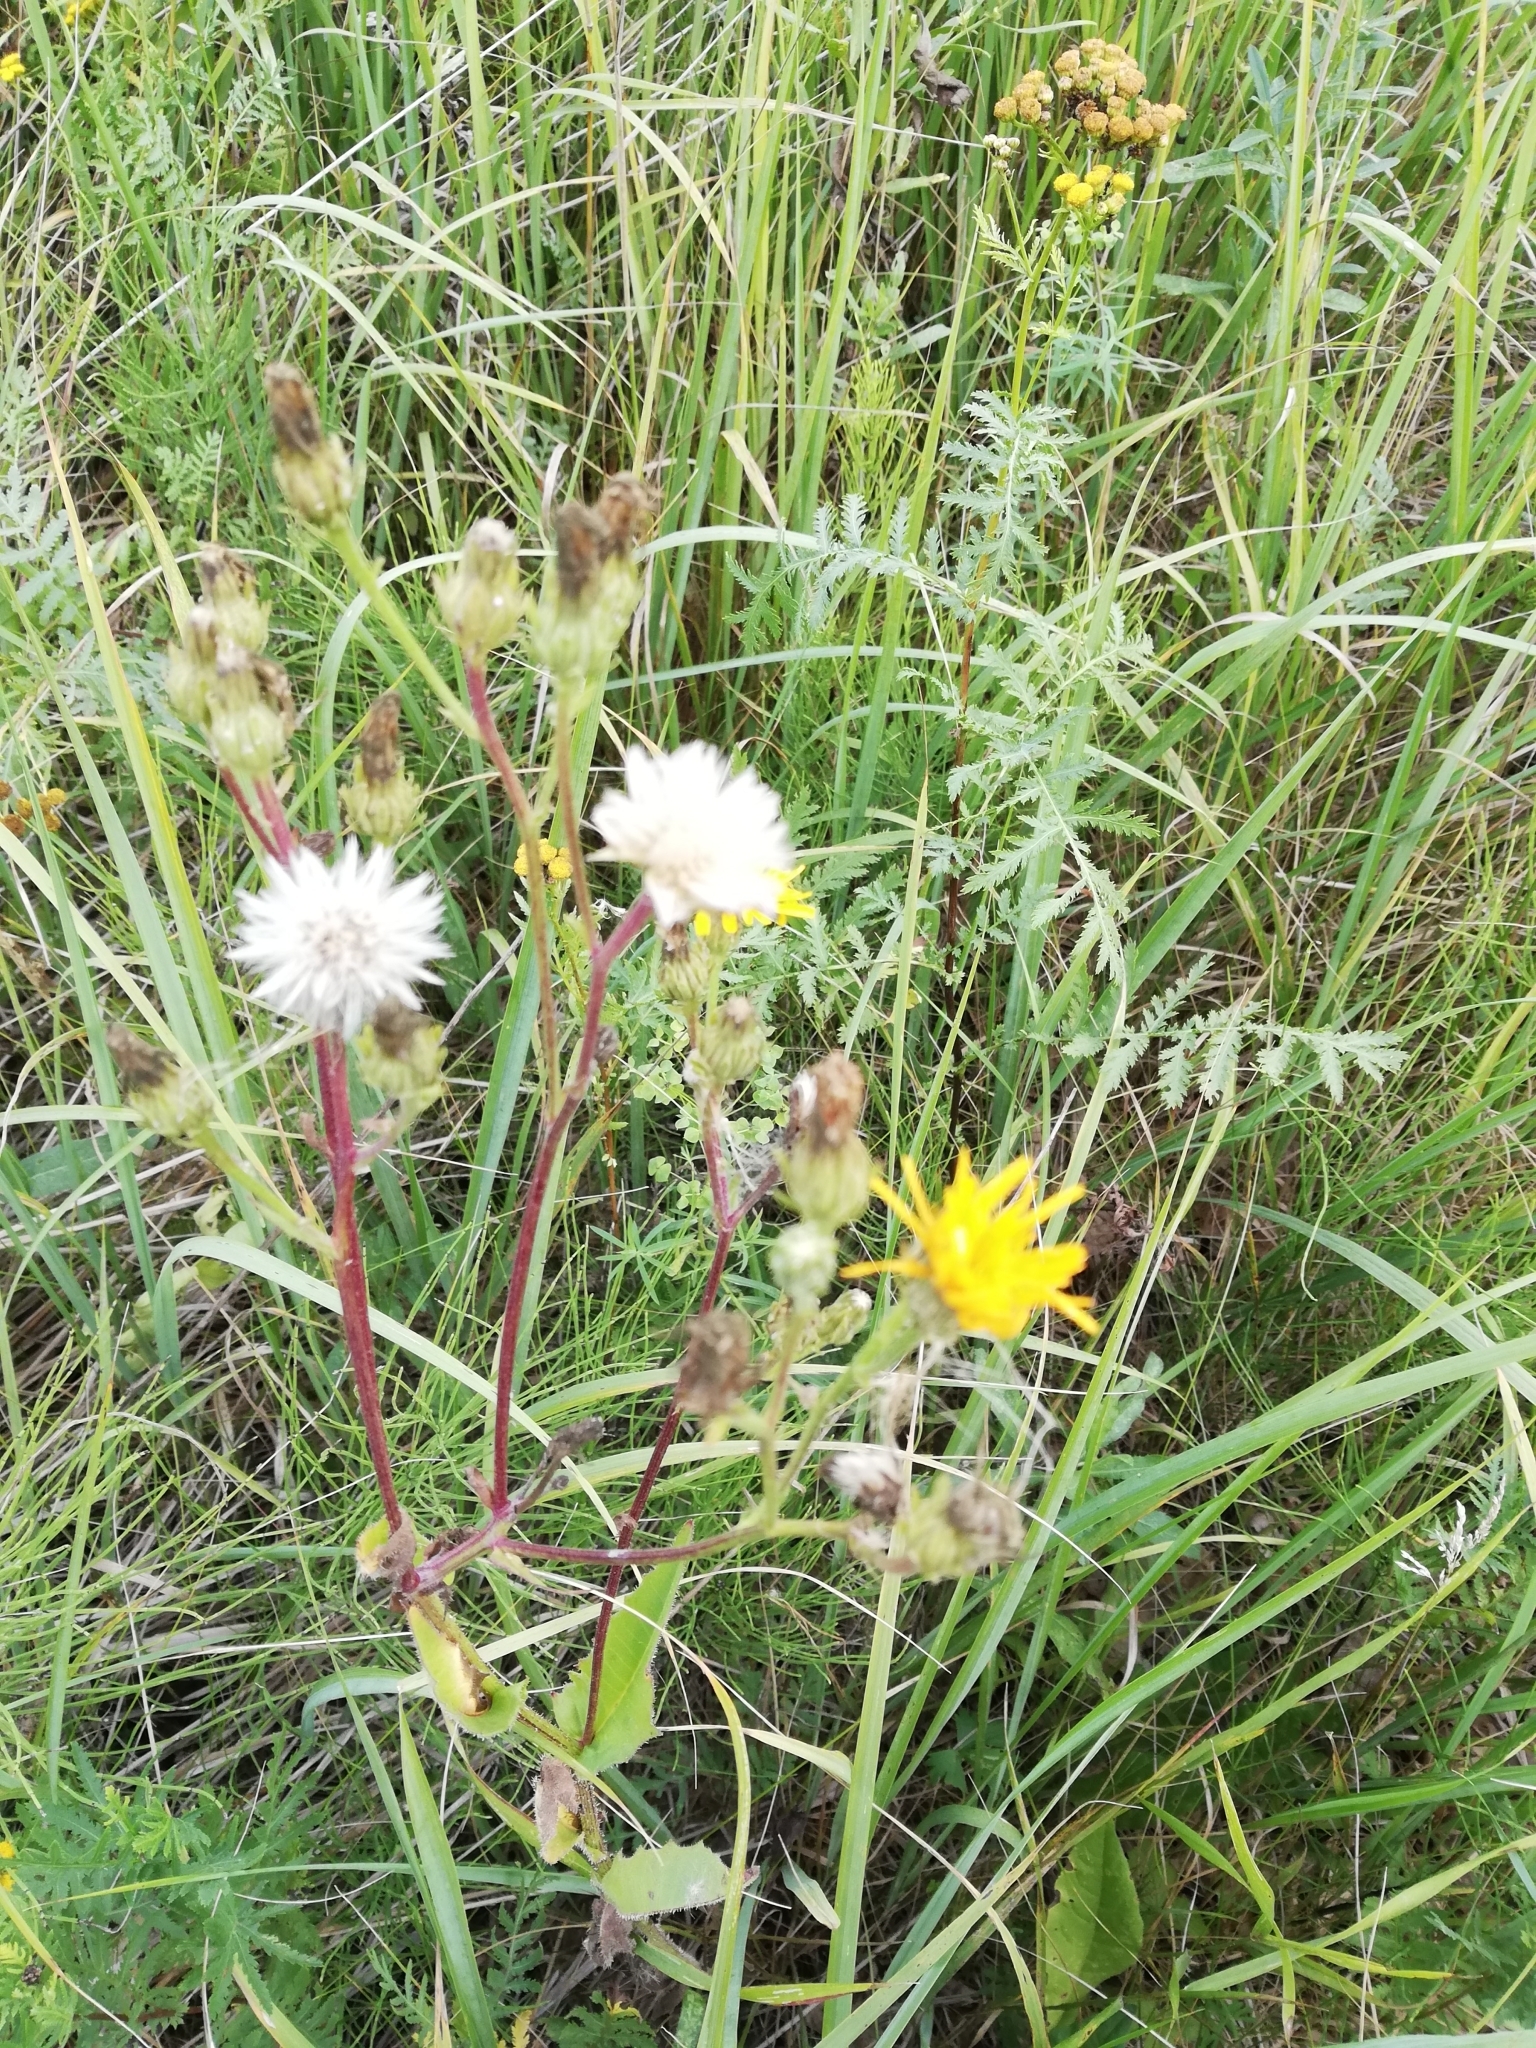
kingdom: Plantae
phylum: Tracheophyta
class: Magnoliopsida
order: Asterales
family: Asteraceae
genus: Picris
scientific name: Picris hieracioides
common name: Hawkweed oxtongue
